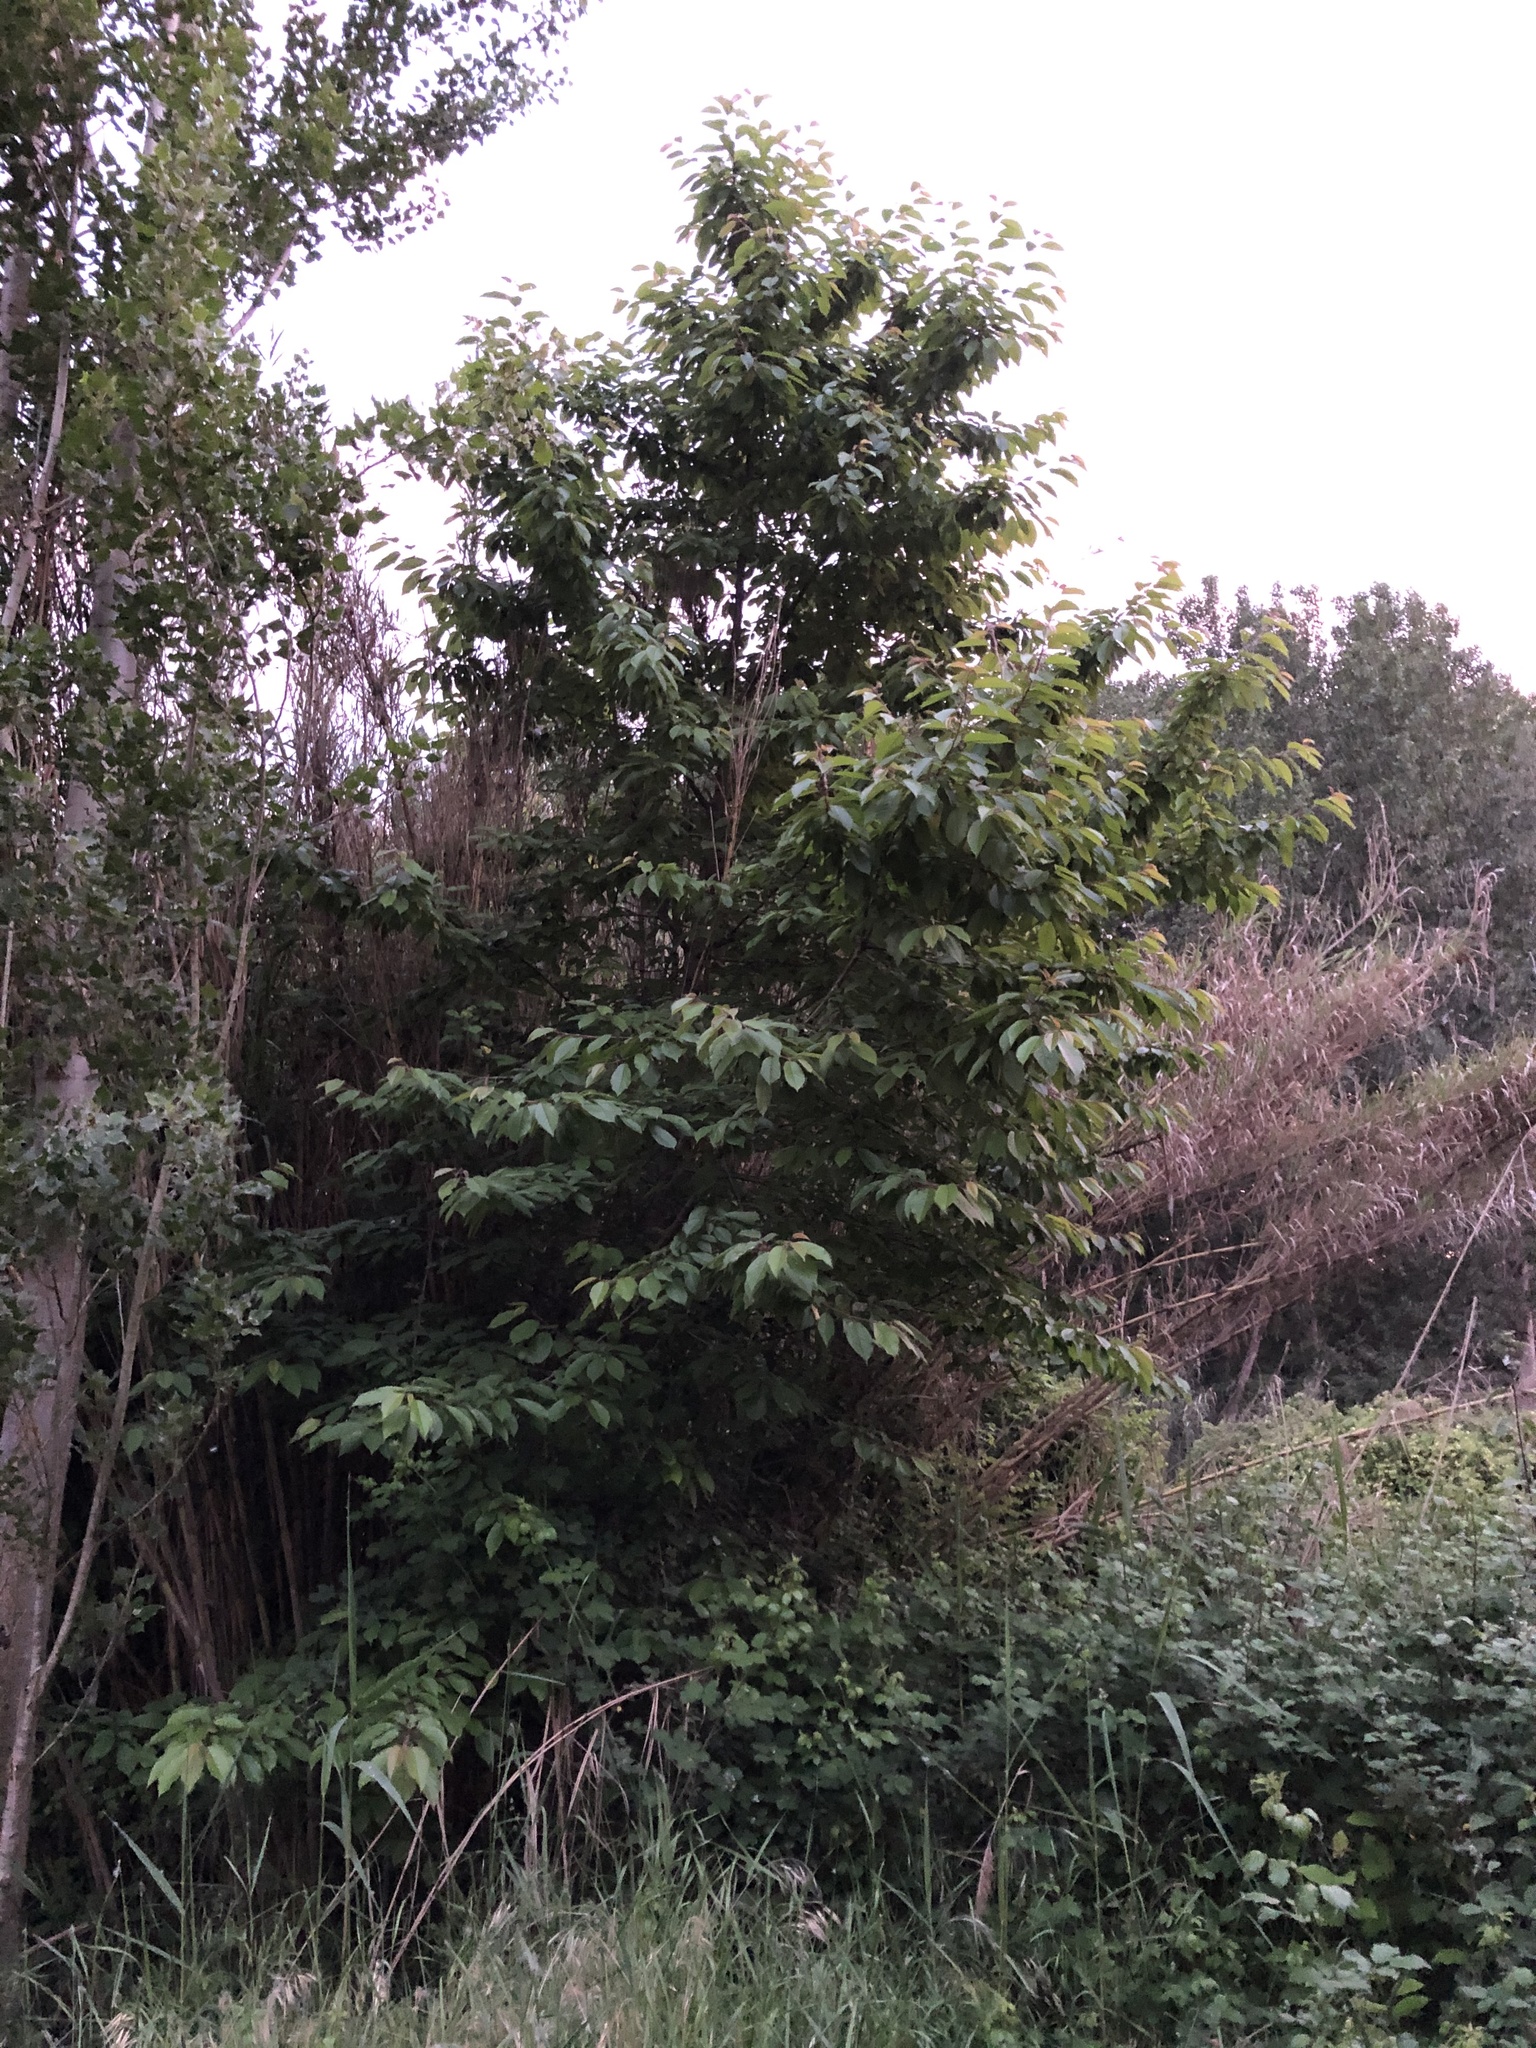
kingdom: Plantae
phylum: Tracheophyta
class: Magnoliopsida
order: Rosales
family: Rosaceae
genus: Prunus
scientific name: Prunus avium
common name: Sweet cherry
